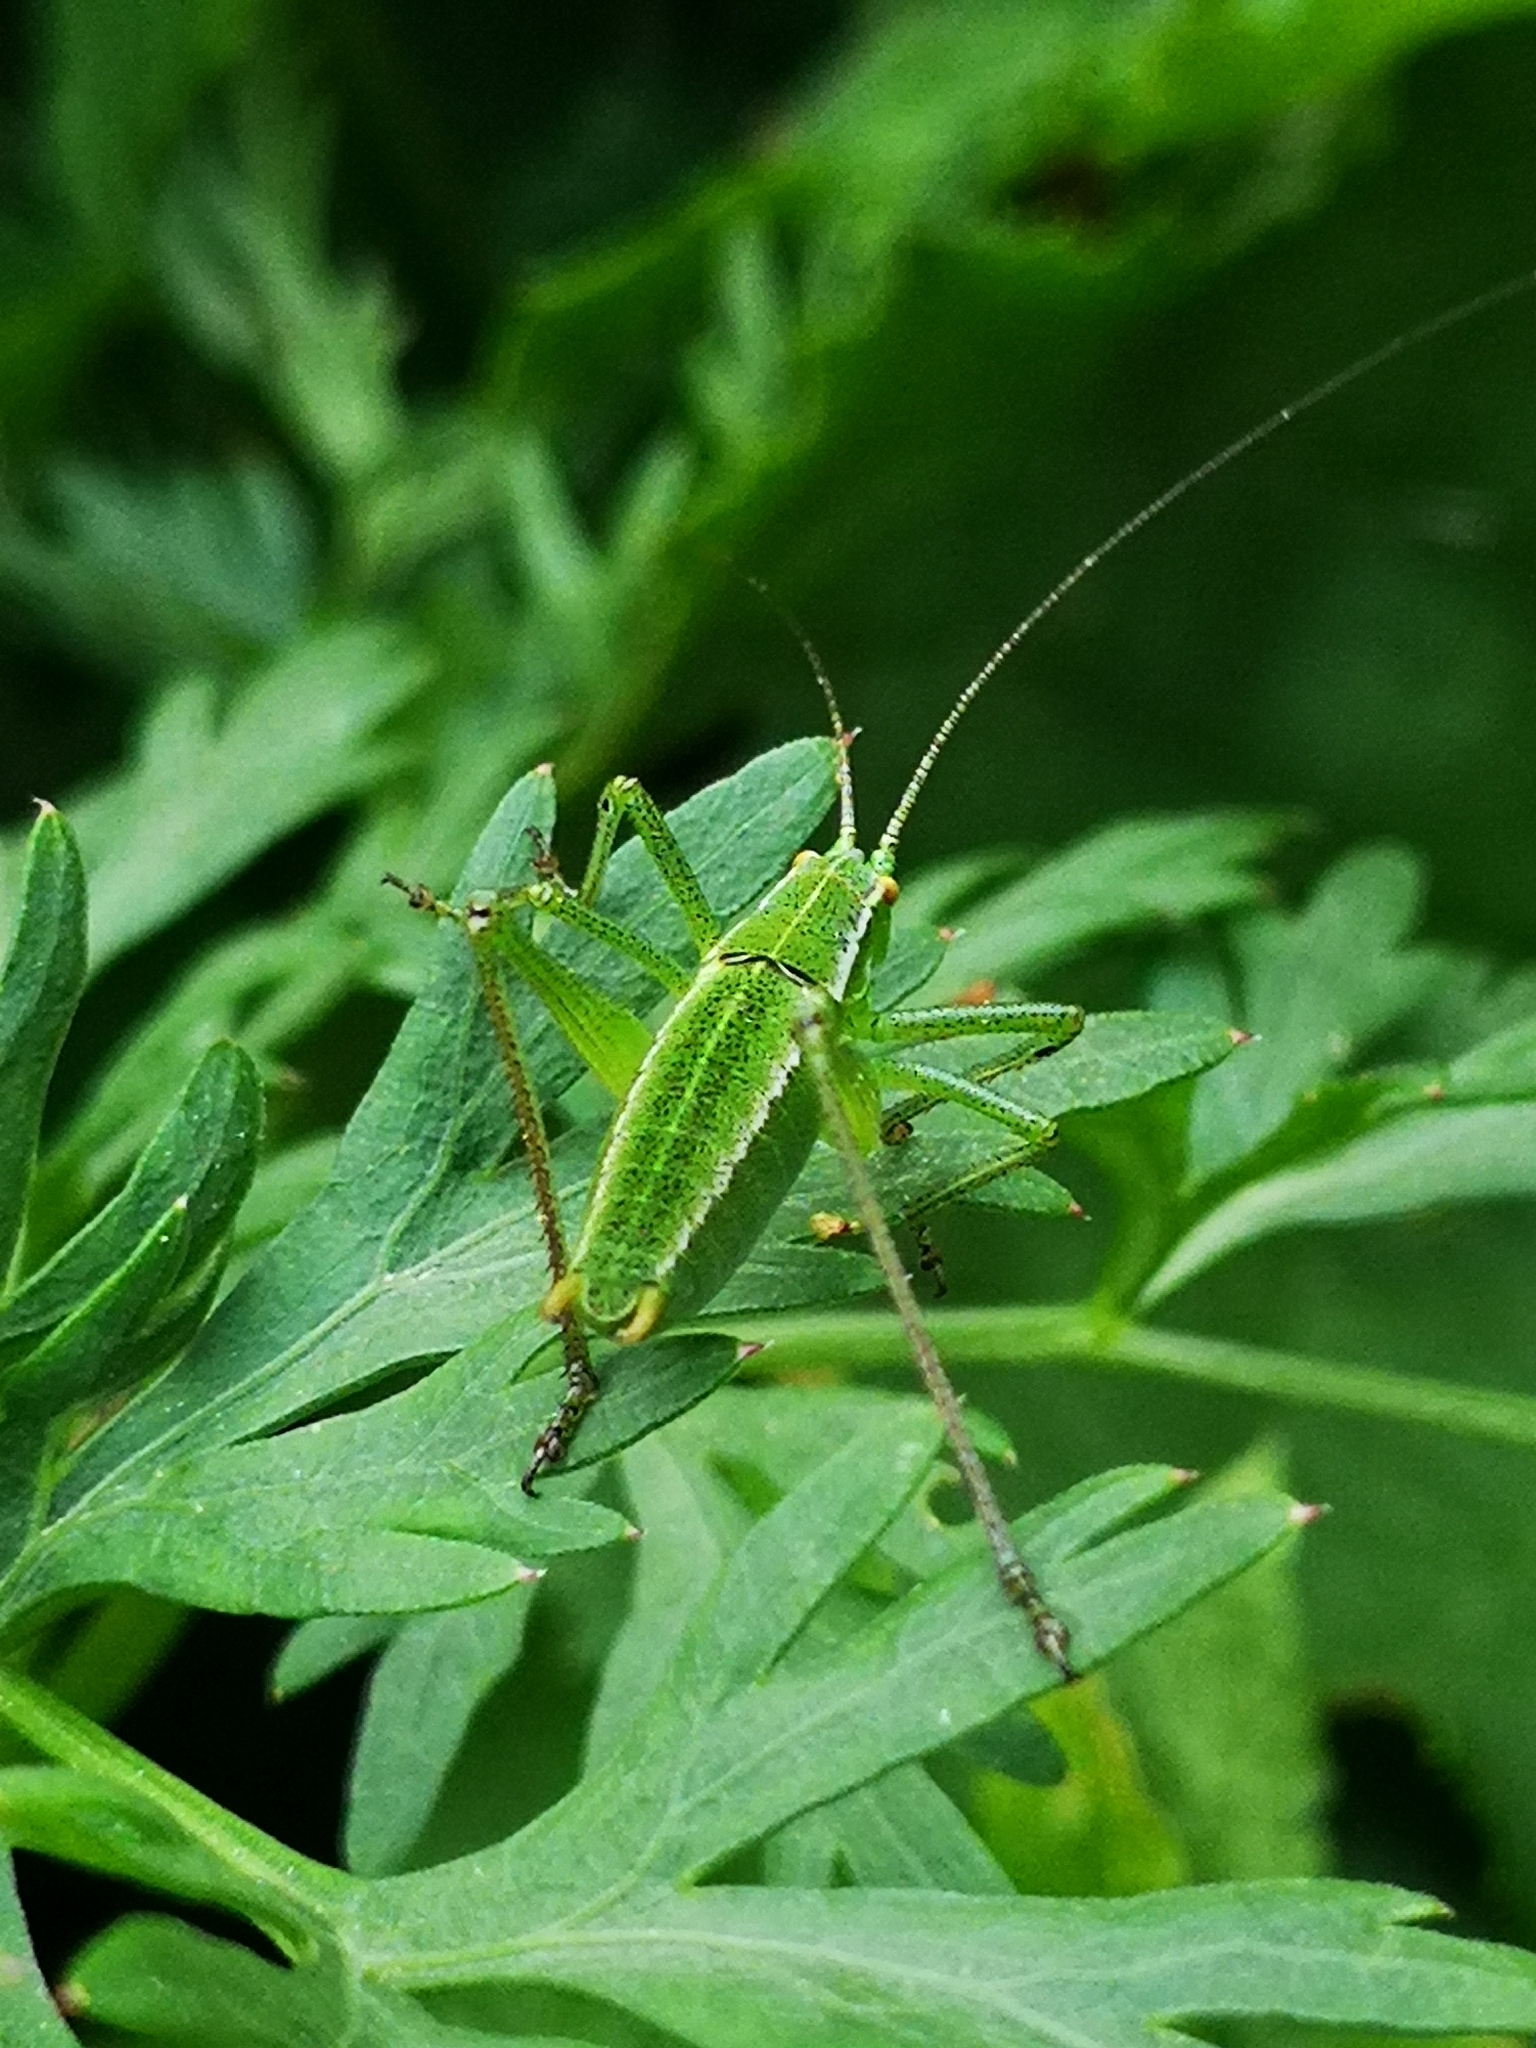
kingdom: Animalia
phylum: Arthropoda
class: Insecta
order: Orthoptera
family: Tettigoniidae
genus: Poecilimon
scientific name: Poecilimon superbus
